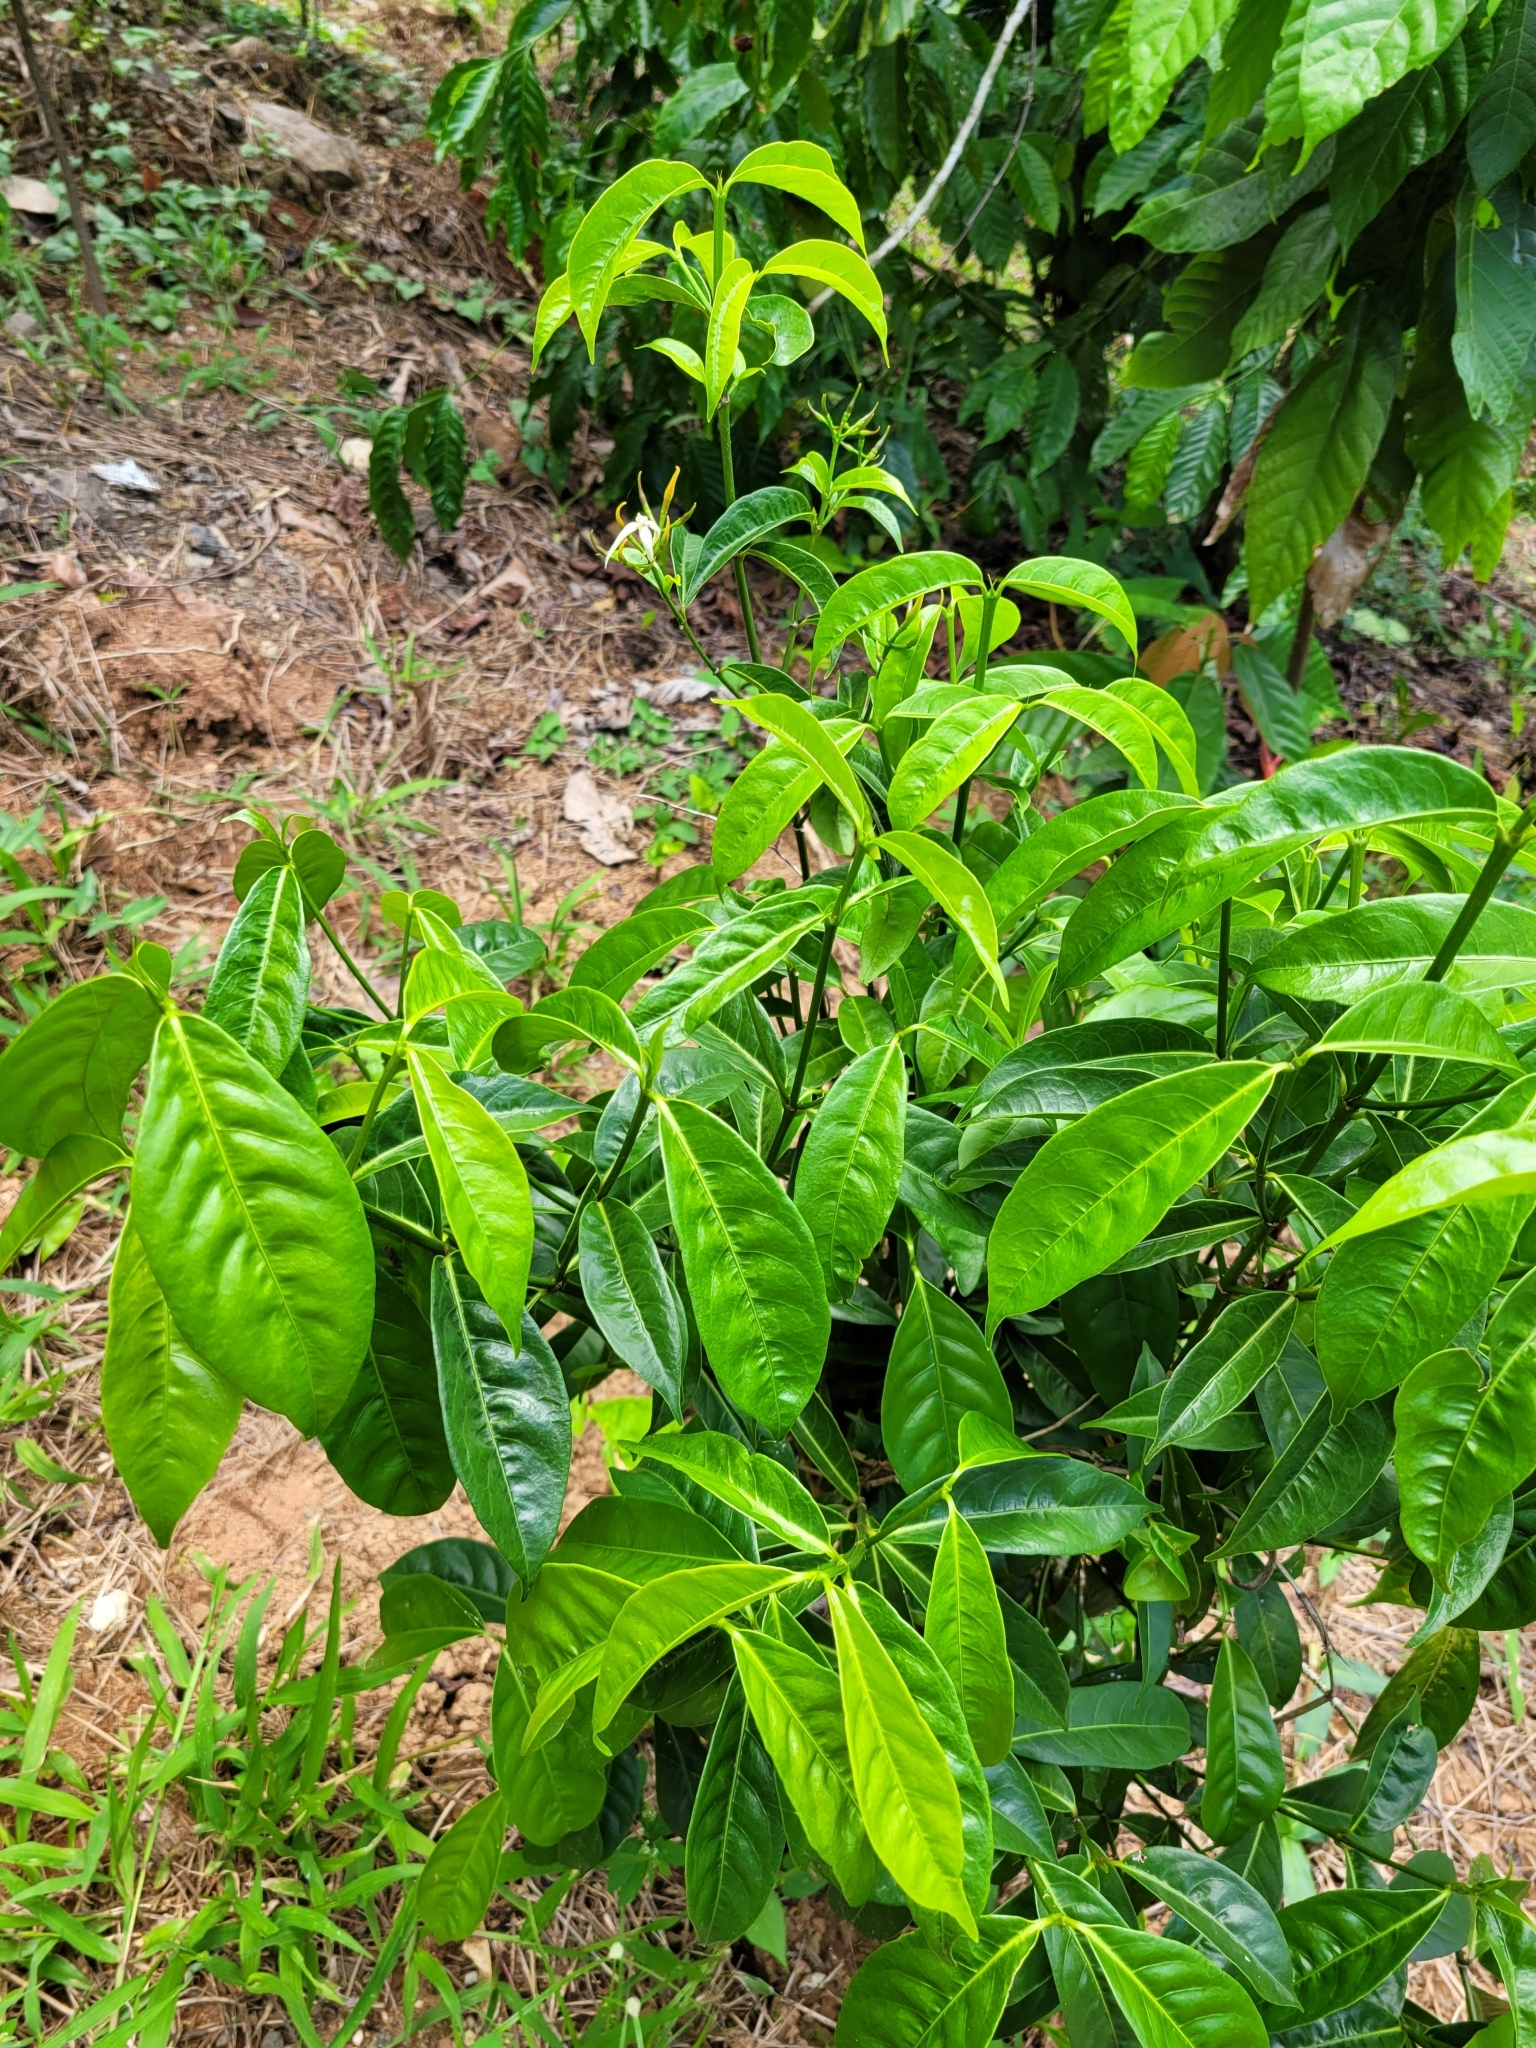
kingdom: Plantae
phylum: Tracheophyta
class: Magnoliopsida
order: Gentianales
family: Rubiaceae
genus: Faramea
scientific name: Faramea occidentalis
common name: False coffee
